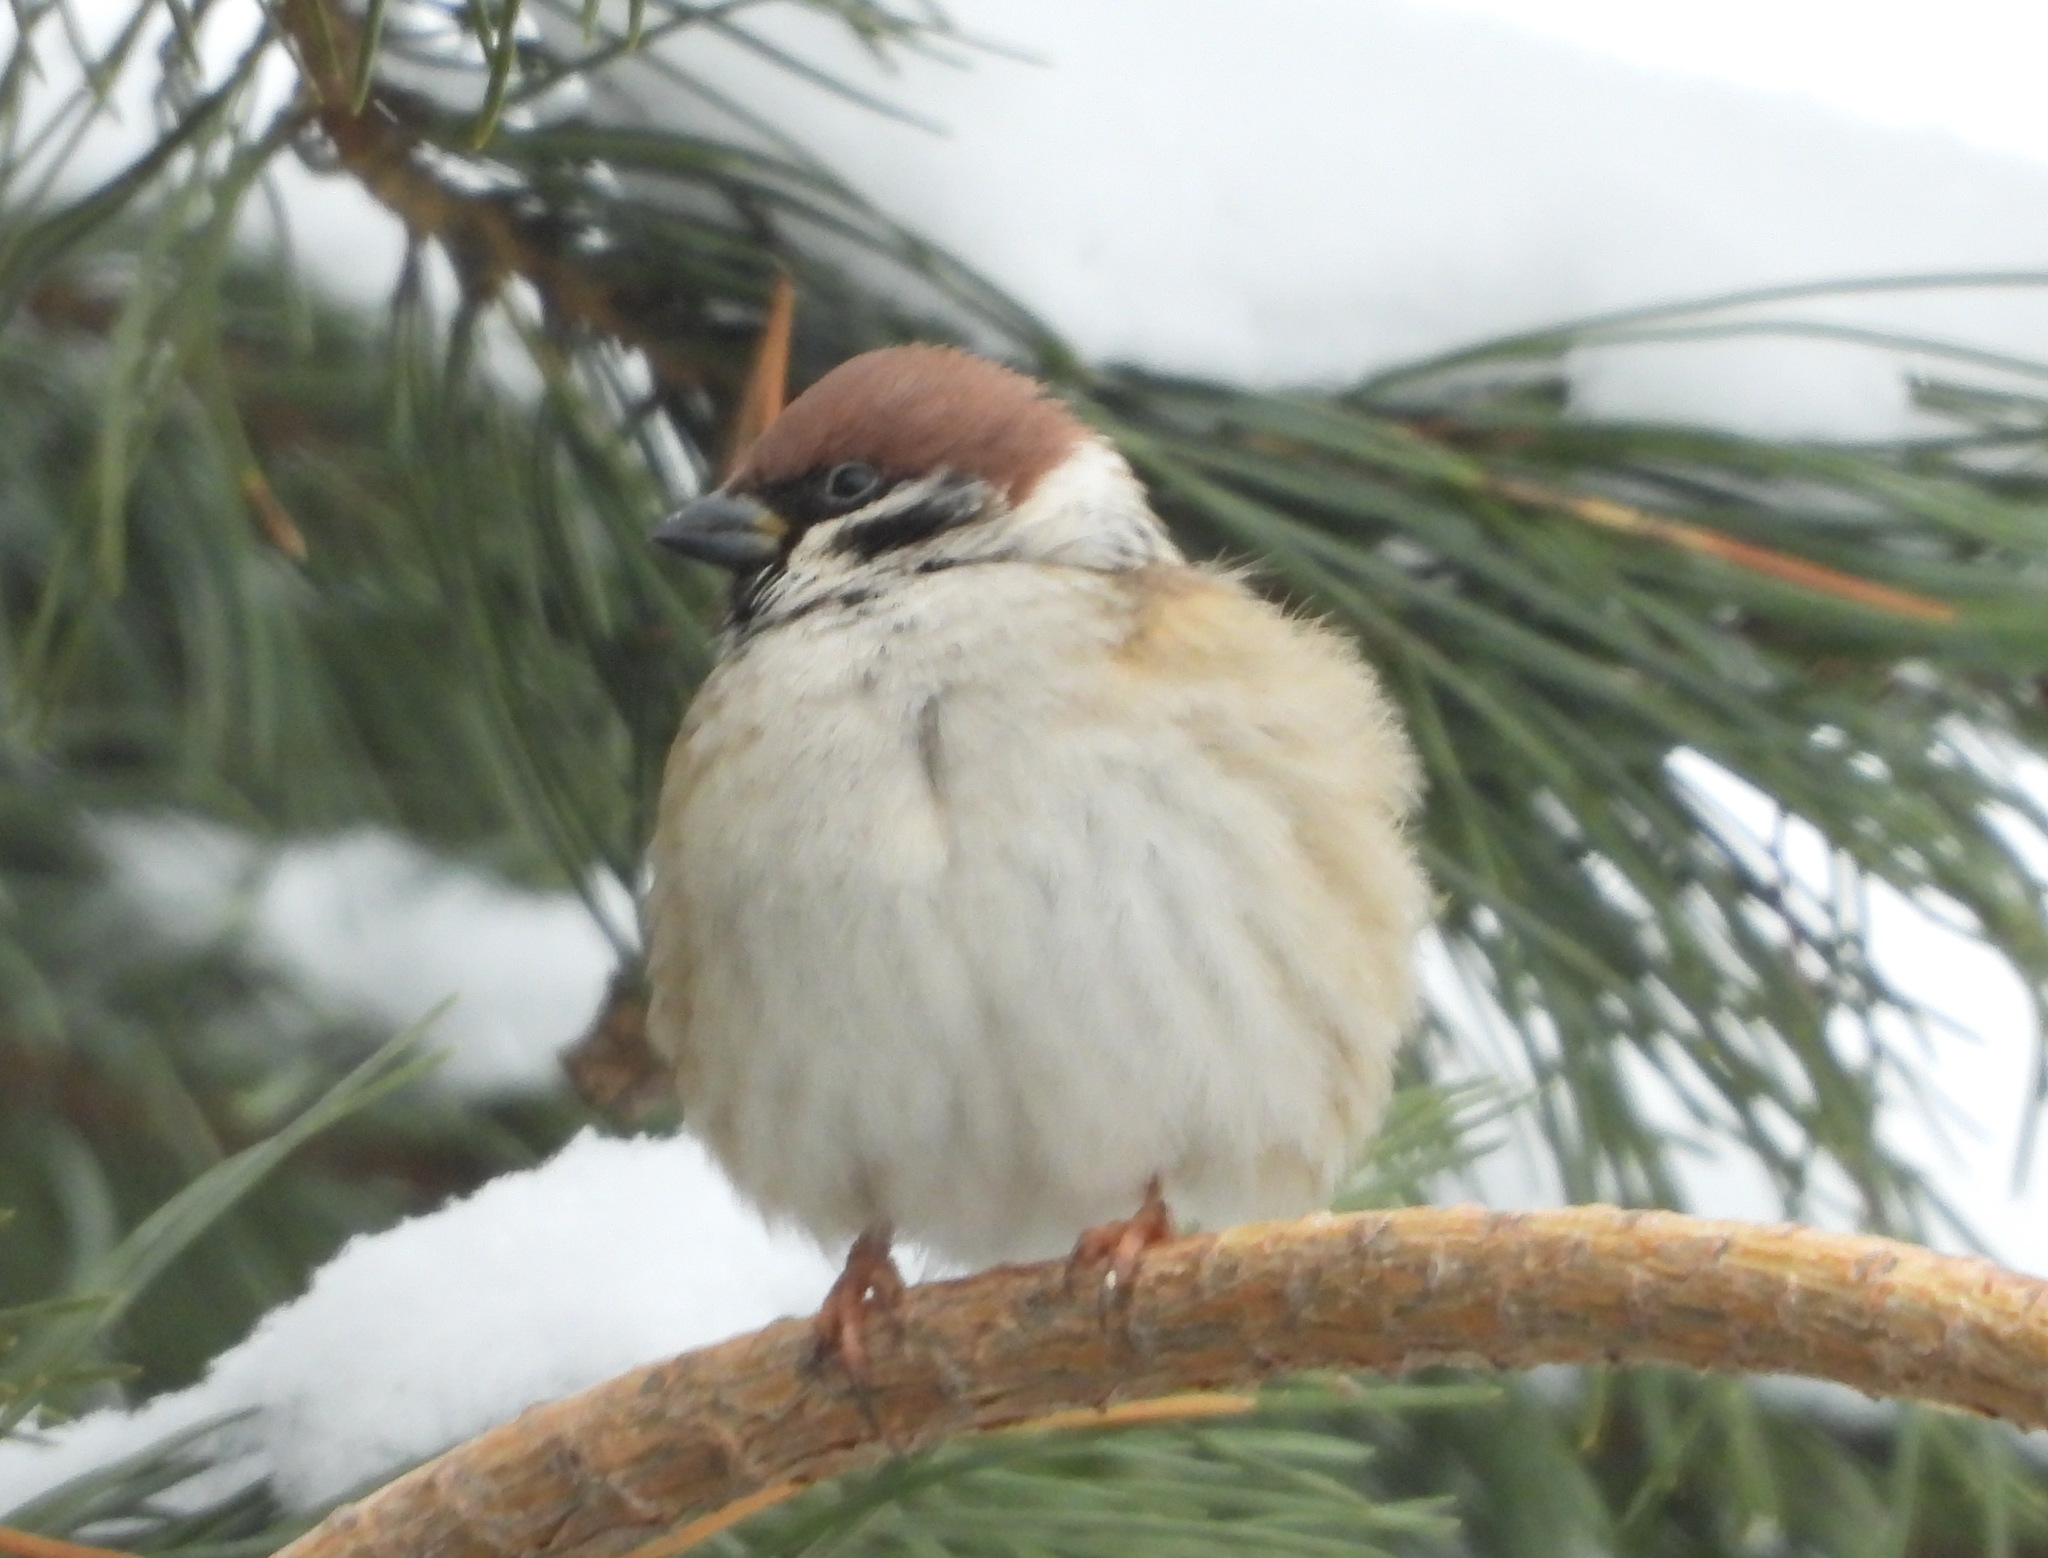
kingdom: Animalia
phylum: Chordata
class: Aves
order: Passeriformes
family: Passeridae
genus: Passer
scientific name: Passer montanus
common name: Eurasian tree sparrow
